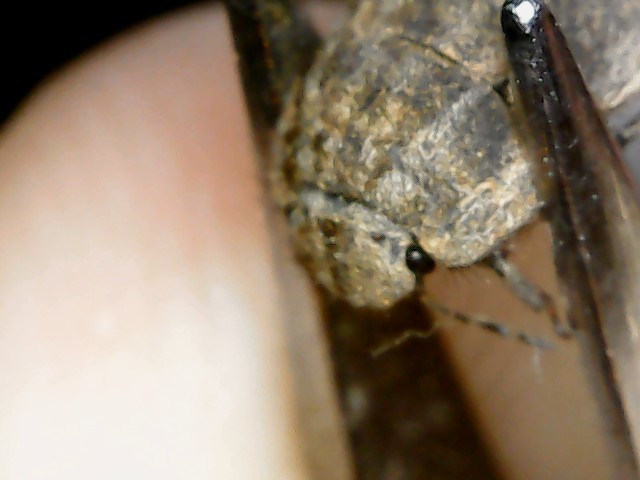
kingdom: Animalia
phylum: Arthropoda
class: Insecta
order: Hemiptera
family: Scutelleridae
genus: Irochrotus
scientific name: Irochrotus maculiventris
